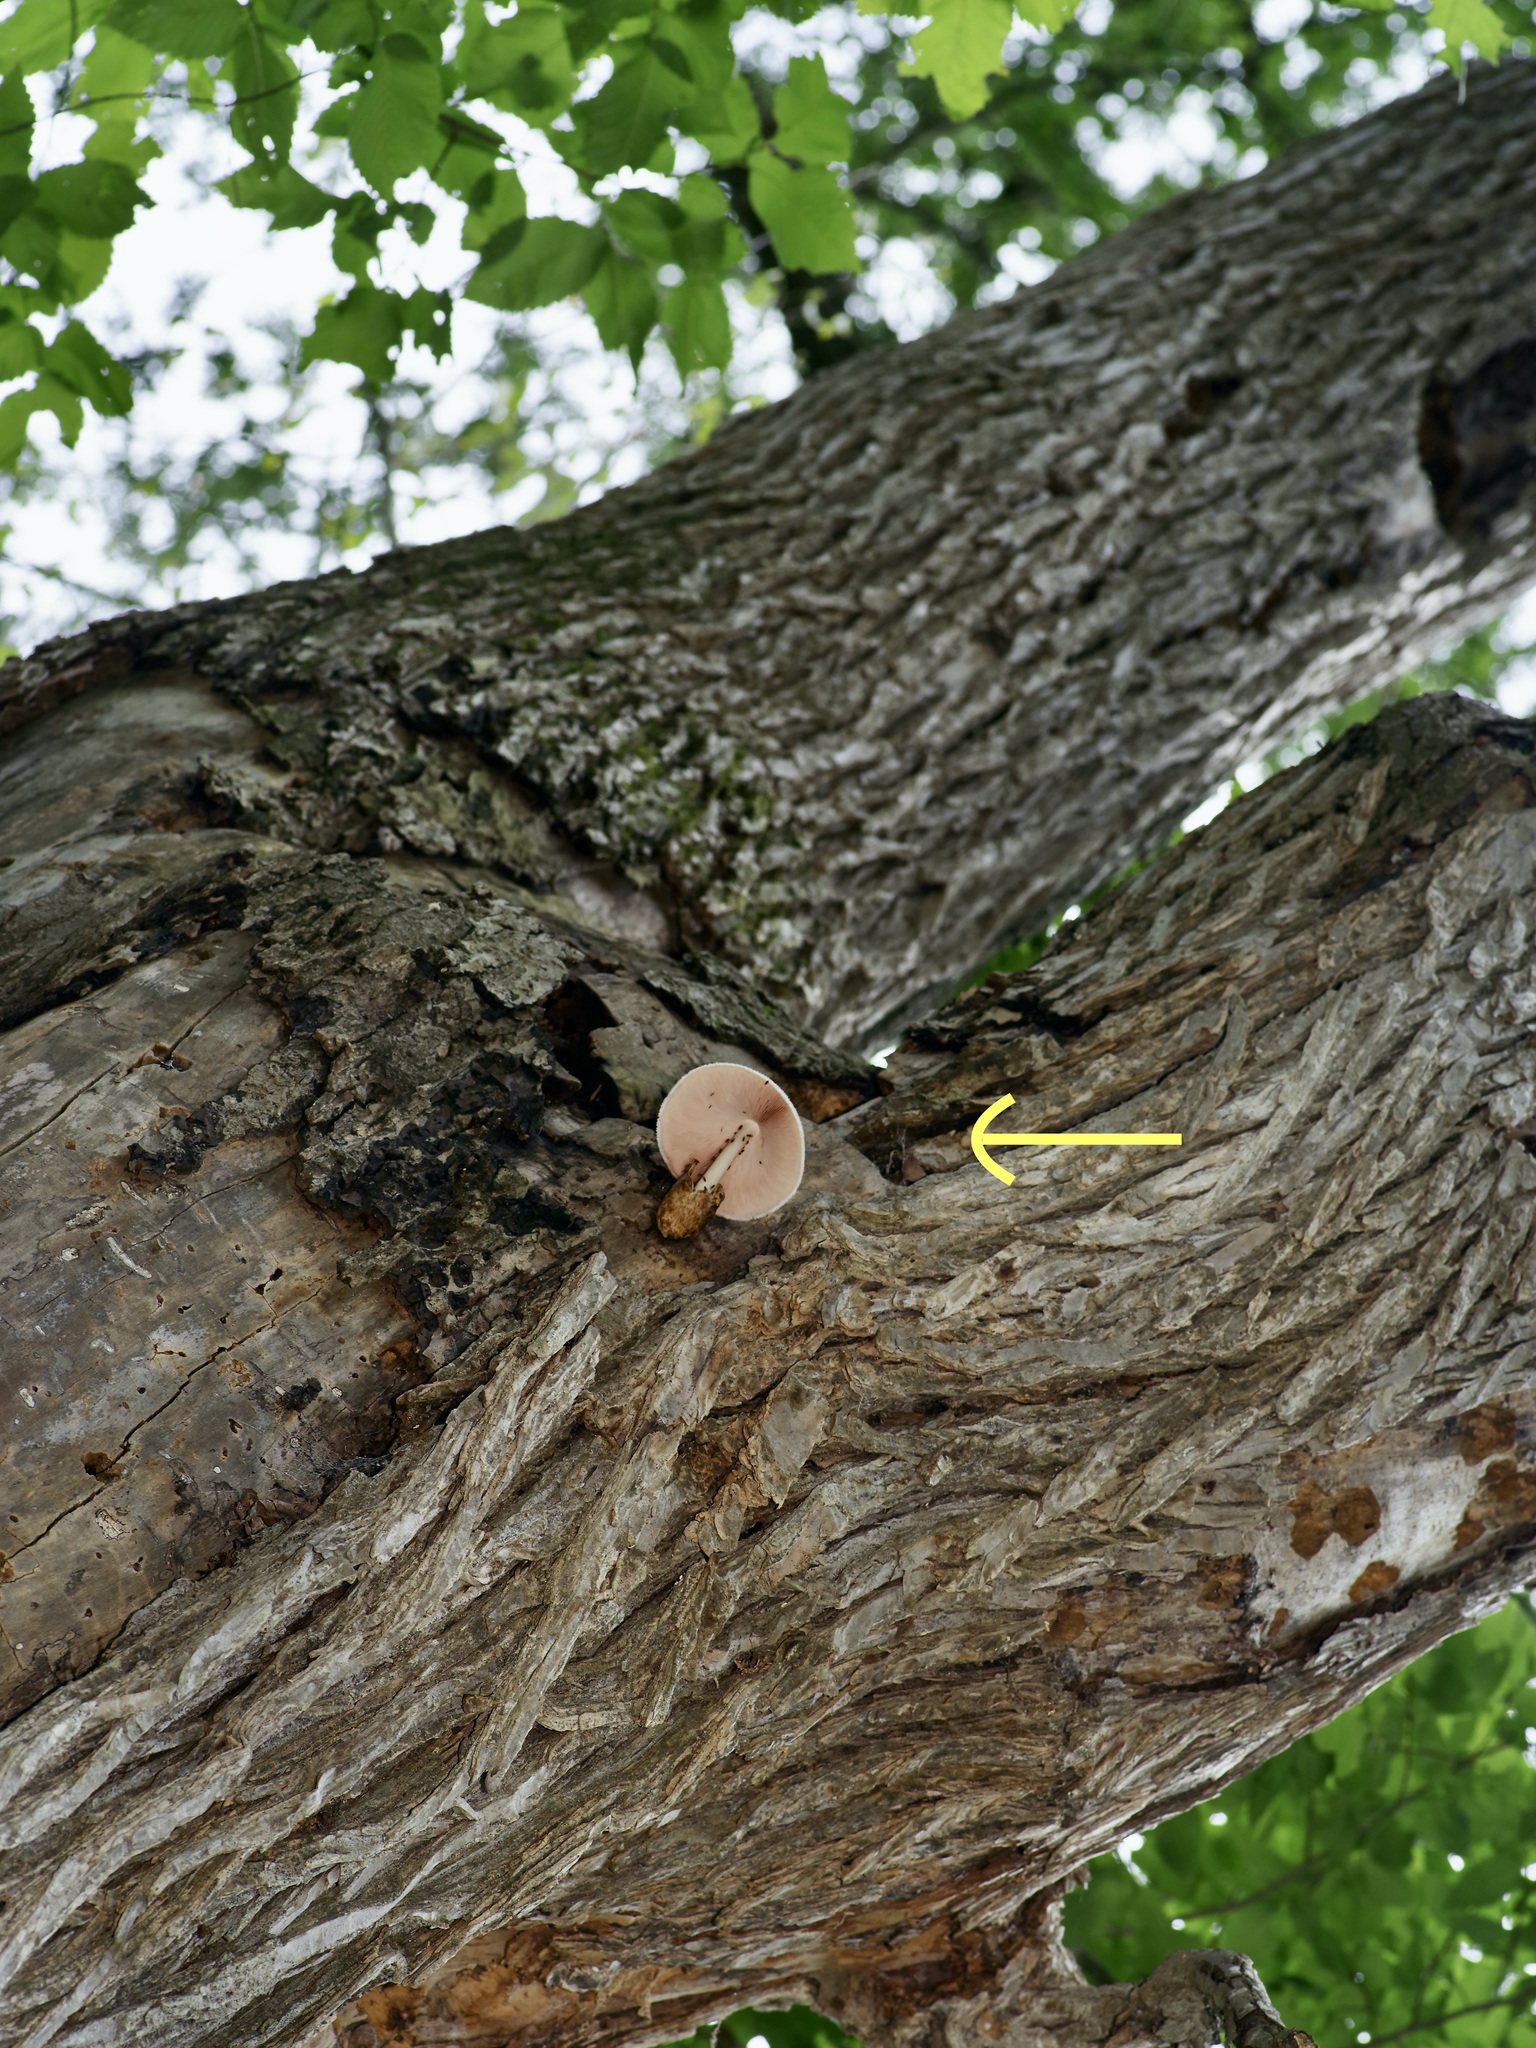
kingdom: Fungi
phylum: Basidiomycota
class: Agaricomycetes
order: Agaricales
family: Pluteaceae
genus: Volvariella
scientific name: Volvariella bombycina
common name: Silky rosegill
